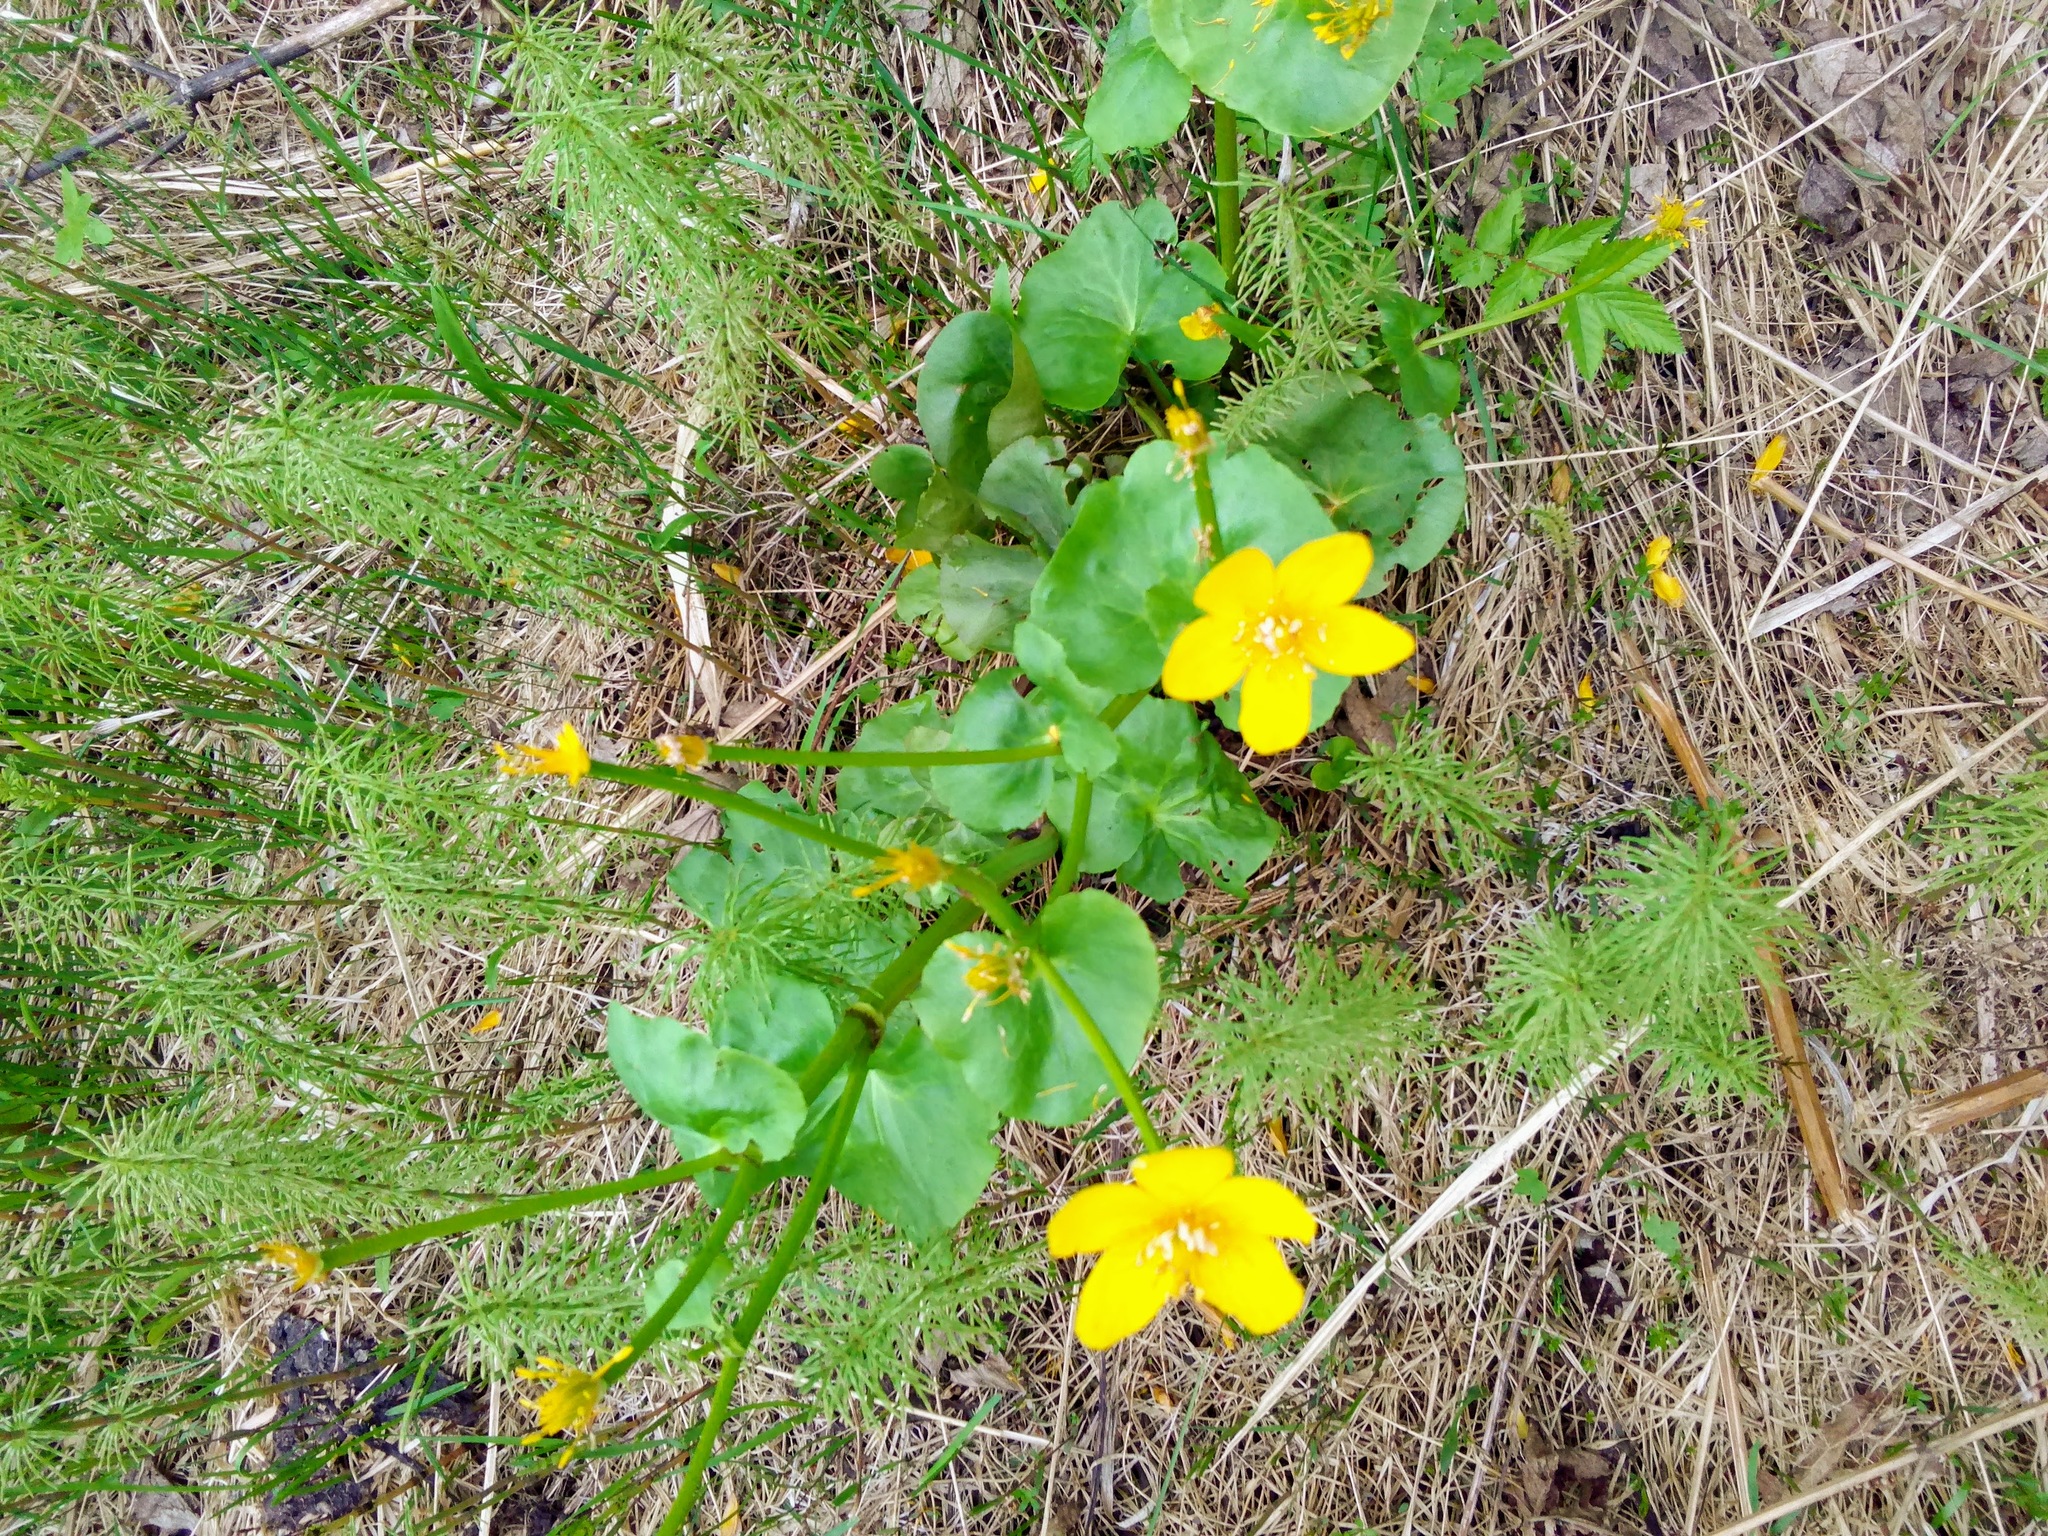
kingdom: Plantae
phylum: Tracheophyta
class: Magnoliopsida
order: Ranunculales
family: Ranunculaceae
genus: Caltha
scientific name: Caltha palustris
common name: Marsh marigold
